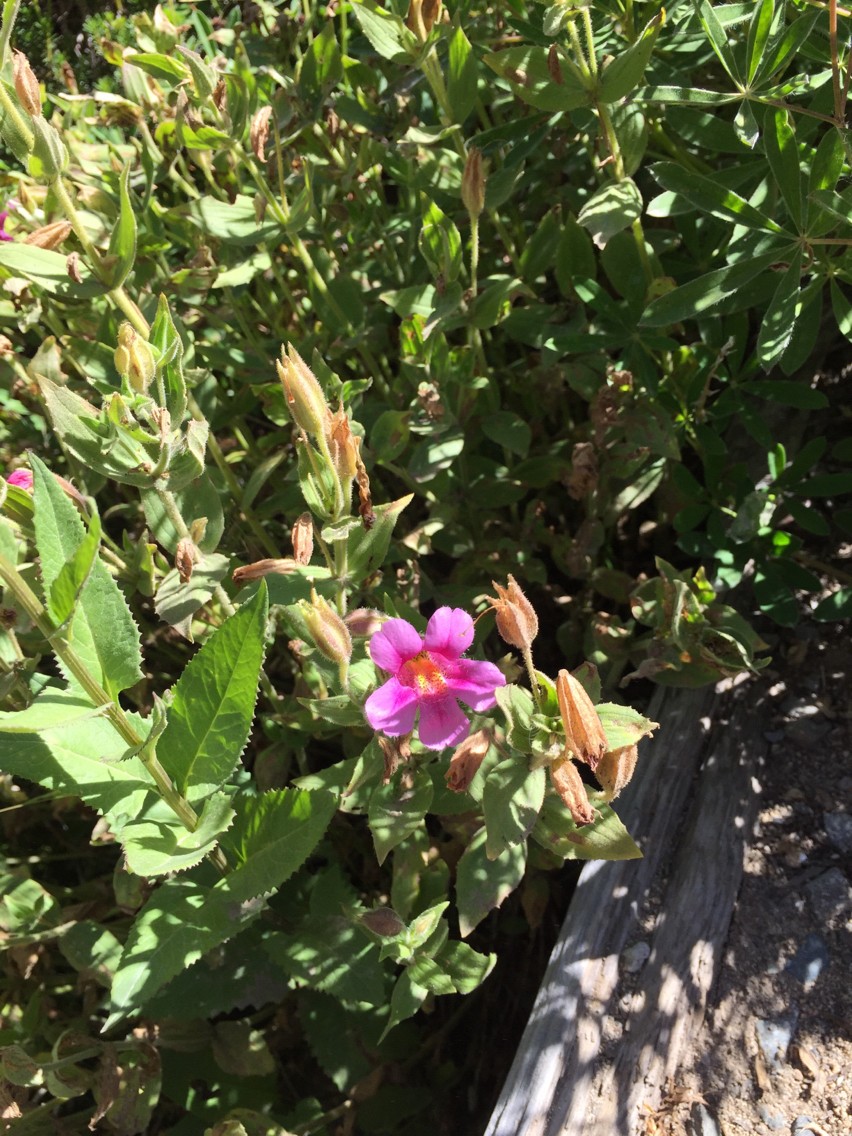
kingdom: Plantae
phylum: Tracheophyta
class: Magnoliopsida
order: Lamiales
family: Phrymaceae
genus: Erythranthe
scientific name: Erythranthe lewisii
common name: Lewis's monkey-flower
